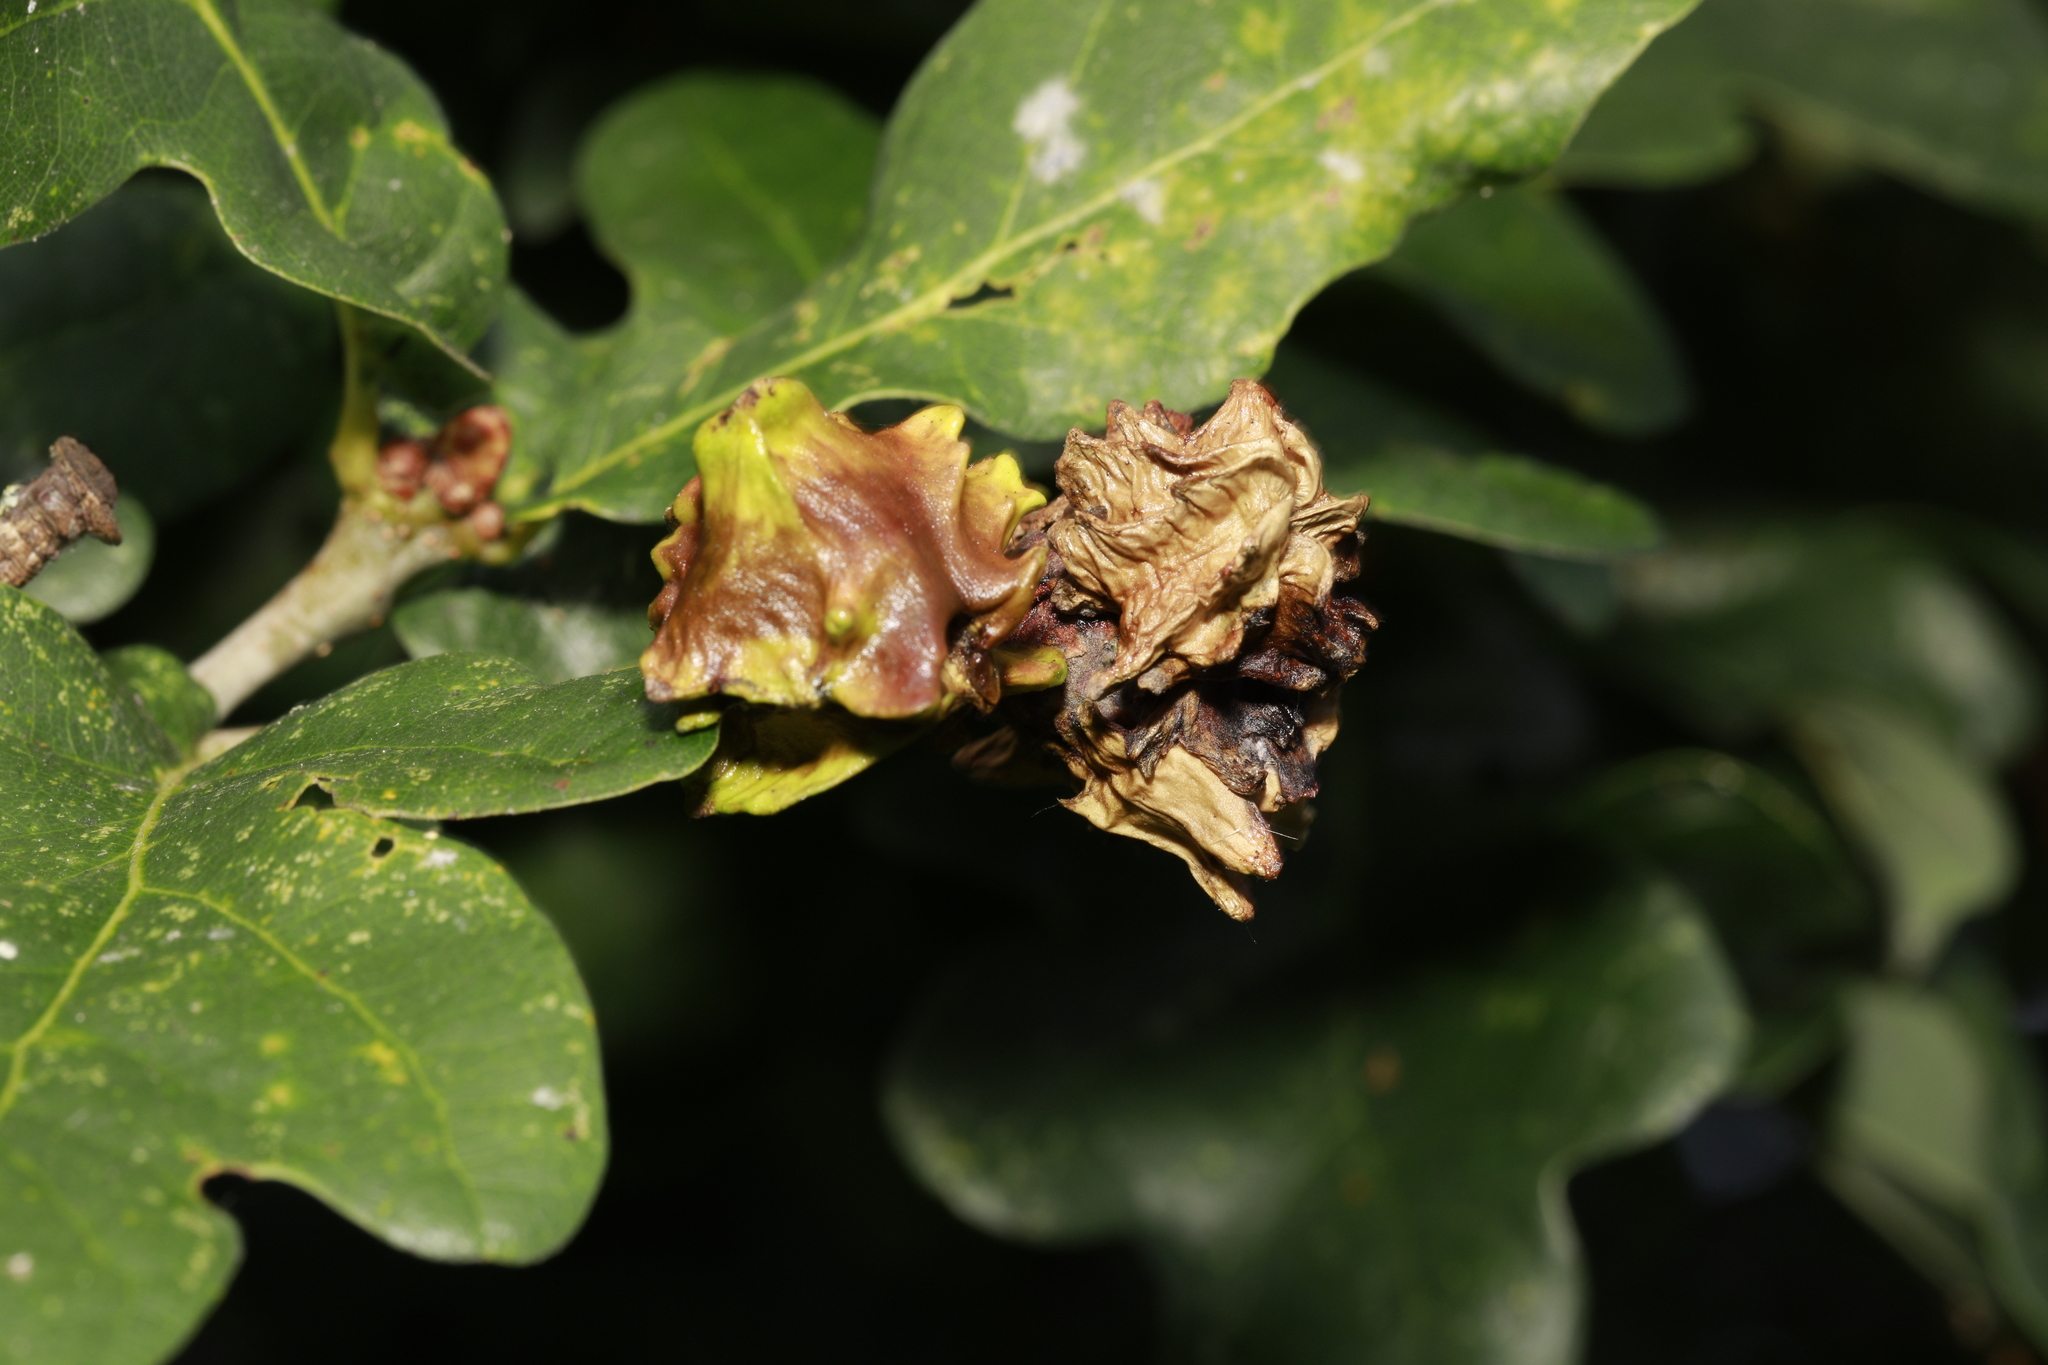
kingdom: Animalia
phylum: Arthropoda
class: Insecta
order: Hymenoptera
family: Cynipidae
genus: Andricus
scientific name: Andricus quercuscalicis
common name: Knopper gall
